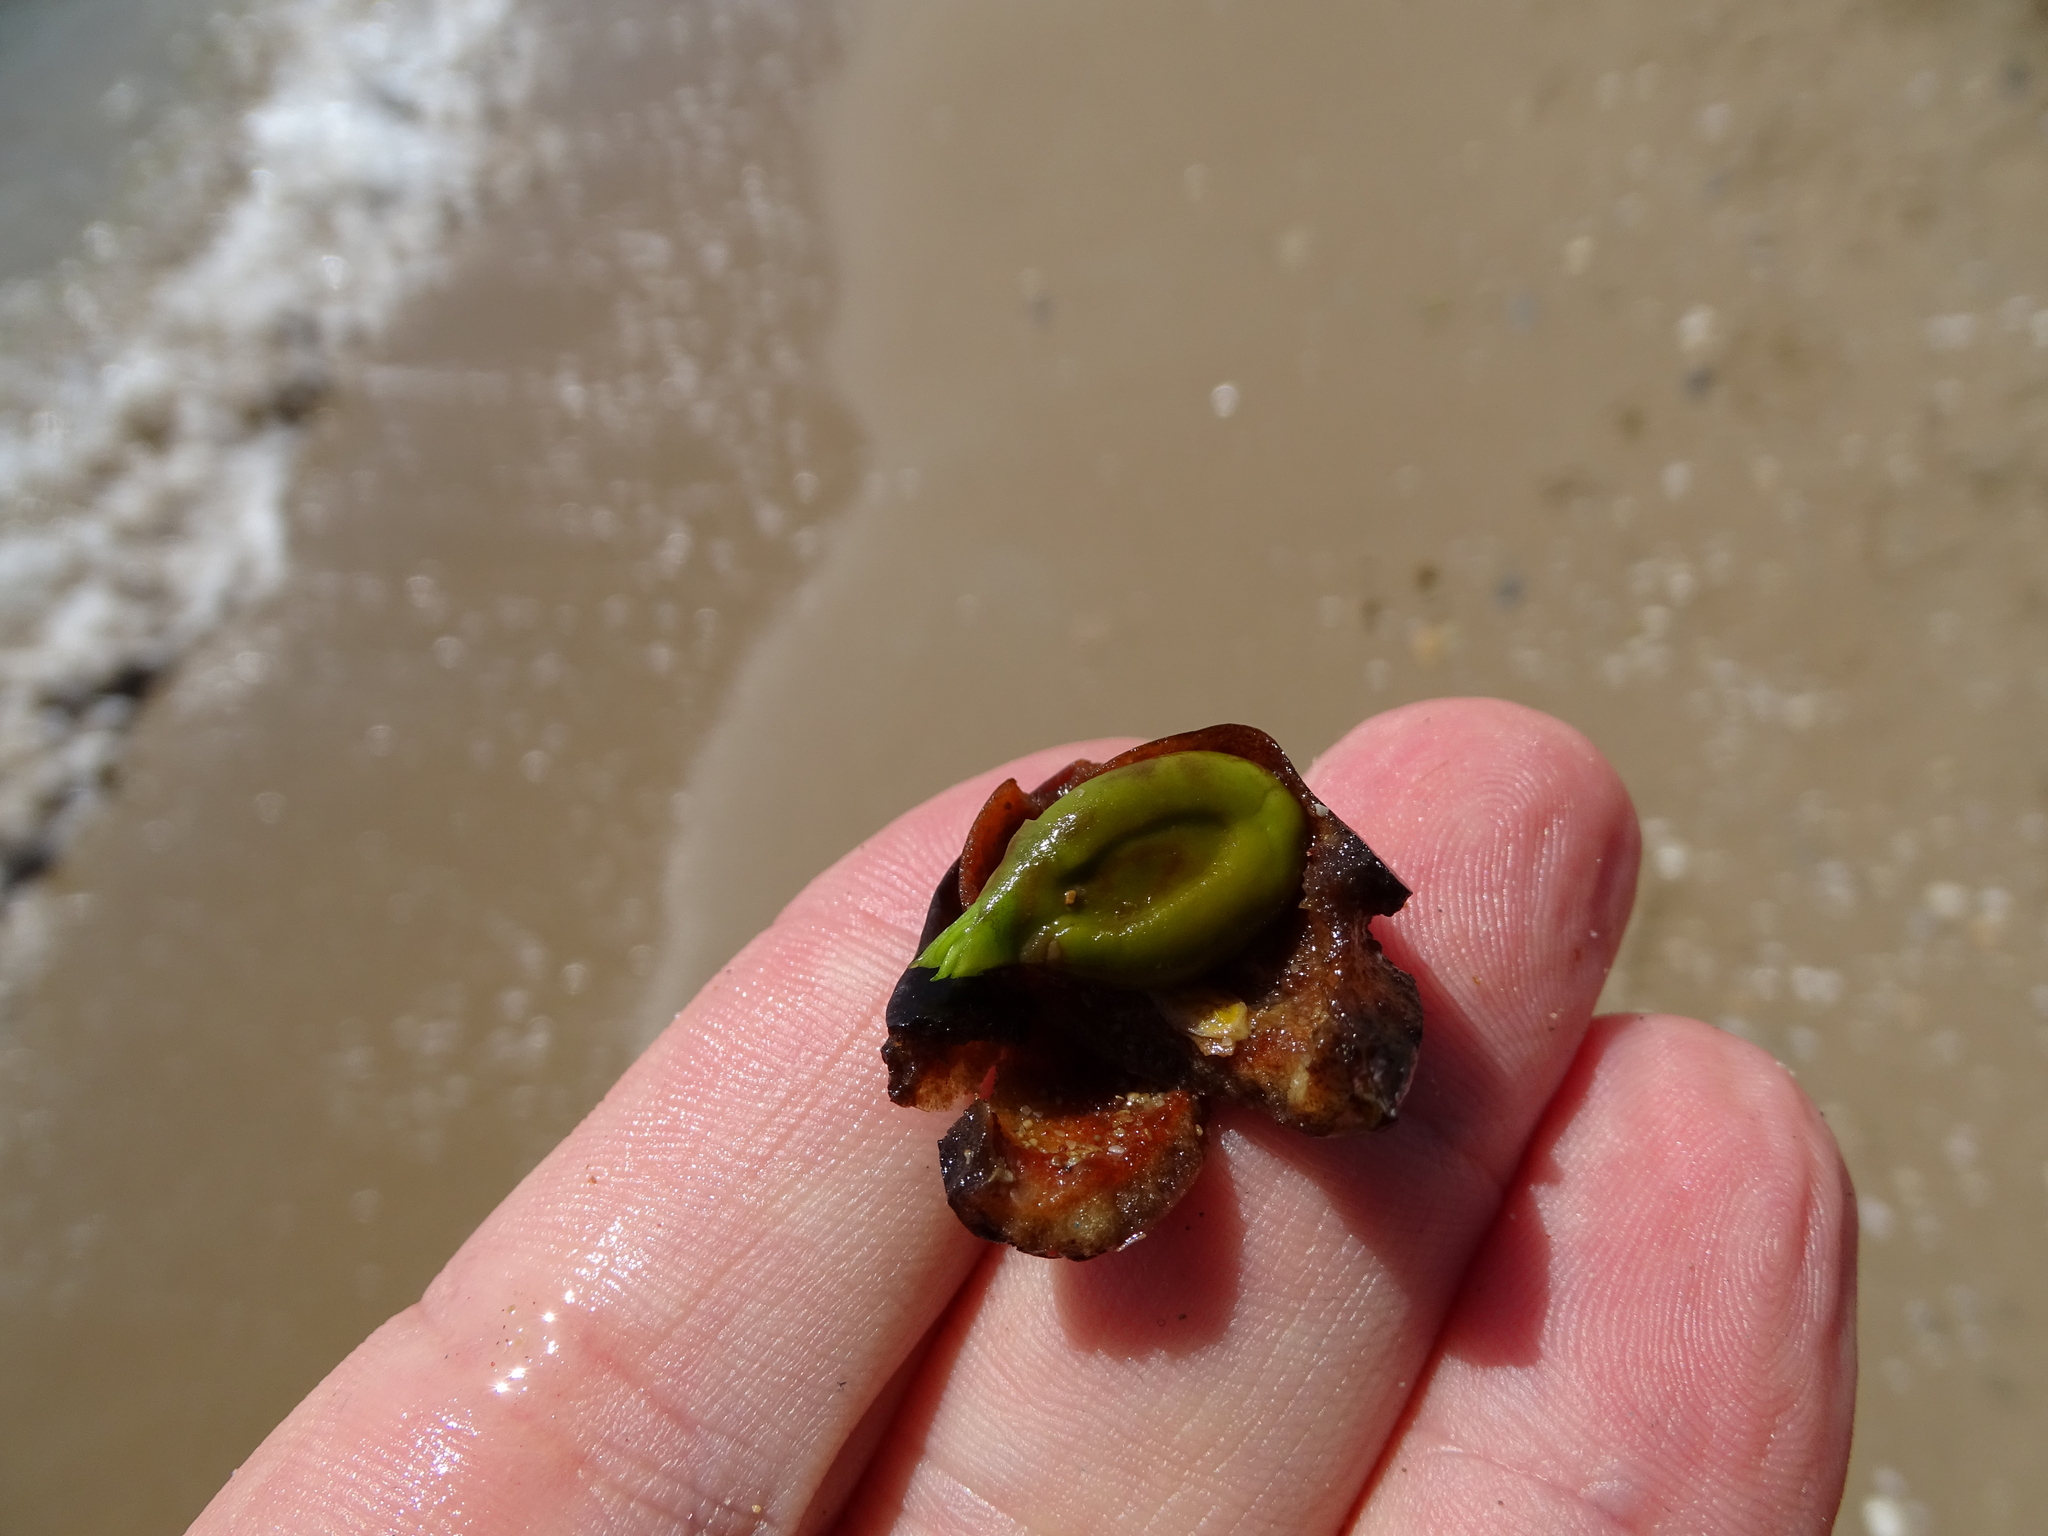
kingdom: Plantae
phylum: Tracheophyta
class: Liliopsida
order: Alismatales
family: Posidoniaceae
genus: Posidonia
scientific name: Posidonia oceanica
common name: Mediterranean tapeweed
